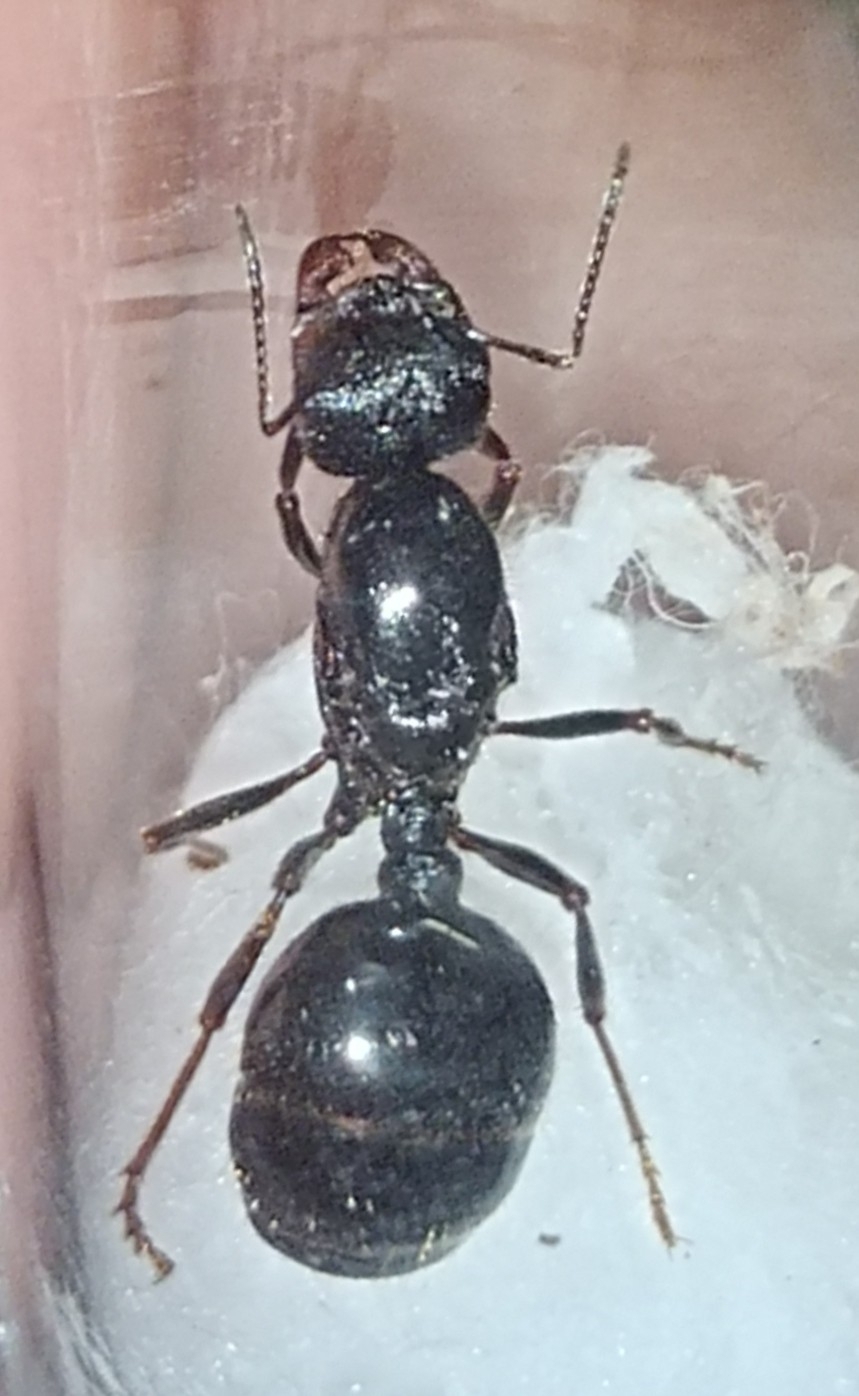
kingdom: Animalia
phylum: Arthropoda
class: Insecta
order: Hymenoptera
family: Formicidae
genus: Messor
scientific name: Messor structor
